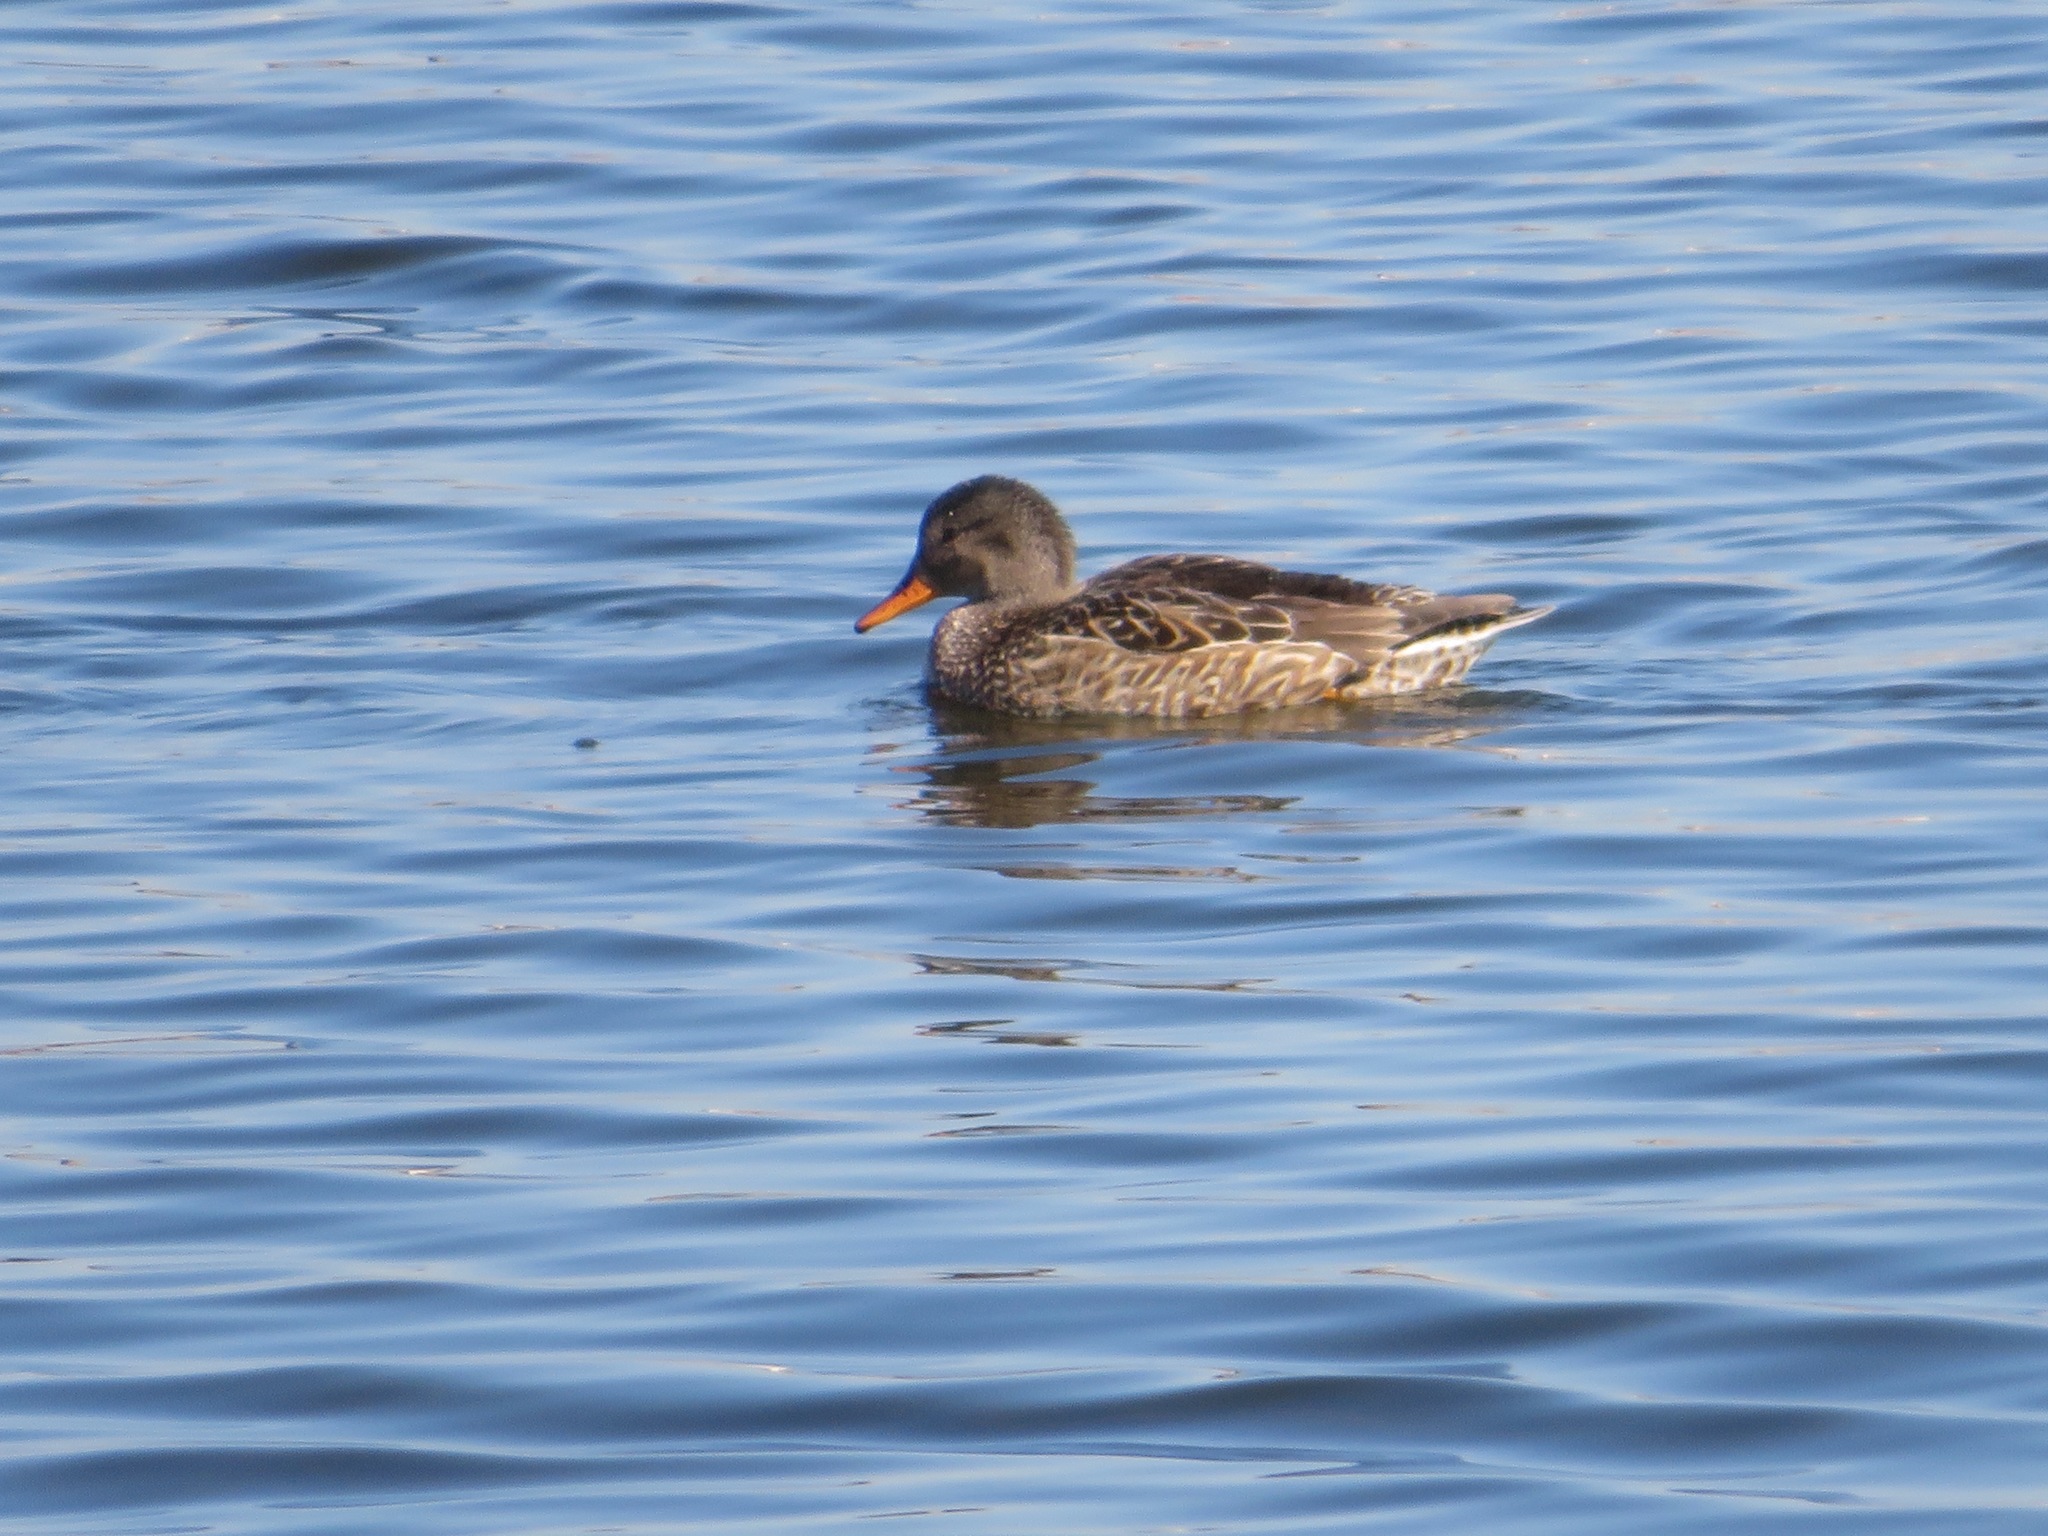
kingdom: Animalia
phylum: Chordata
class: Aves
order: Anseriformes
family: Anatidae
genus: Mareca
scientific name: Mareca strepera
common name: Gadwall
